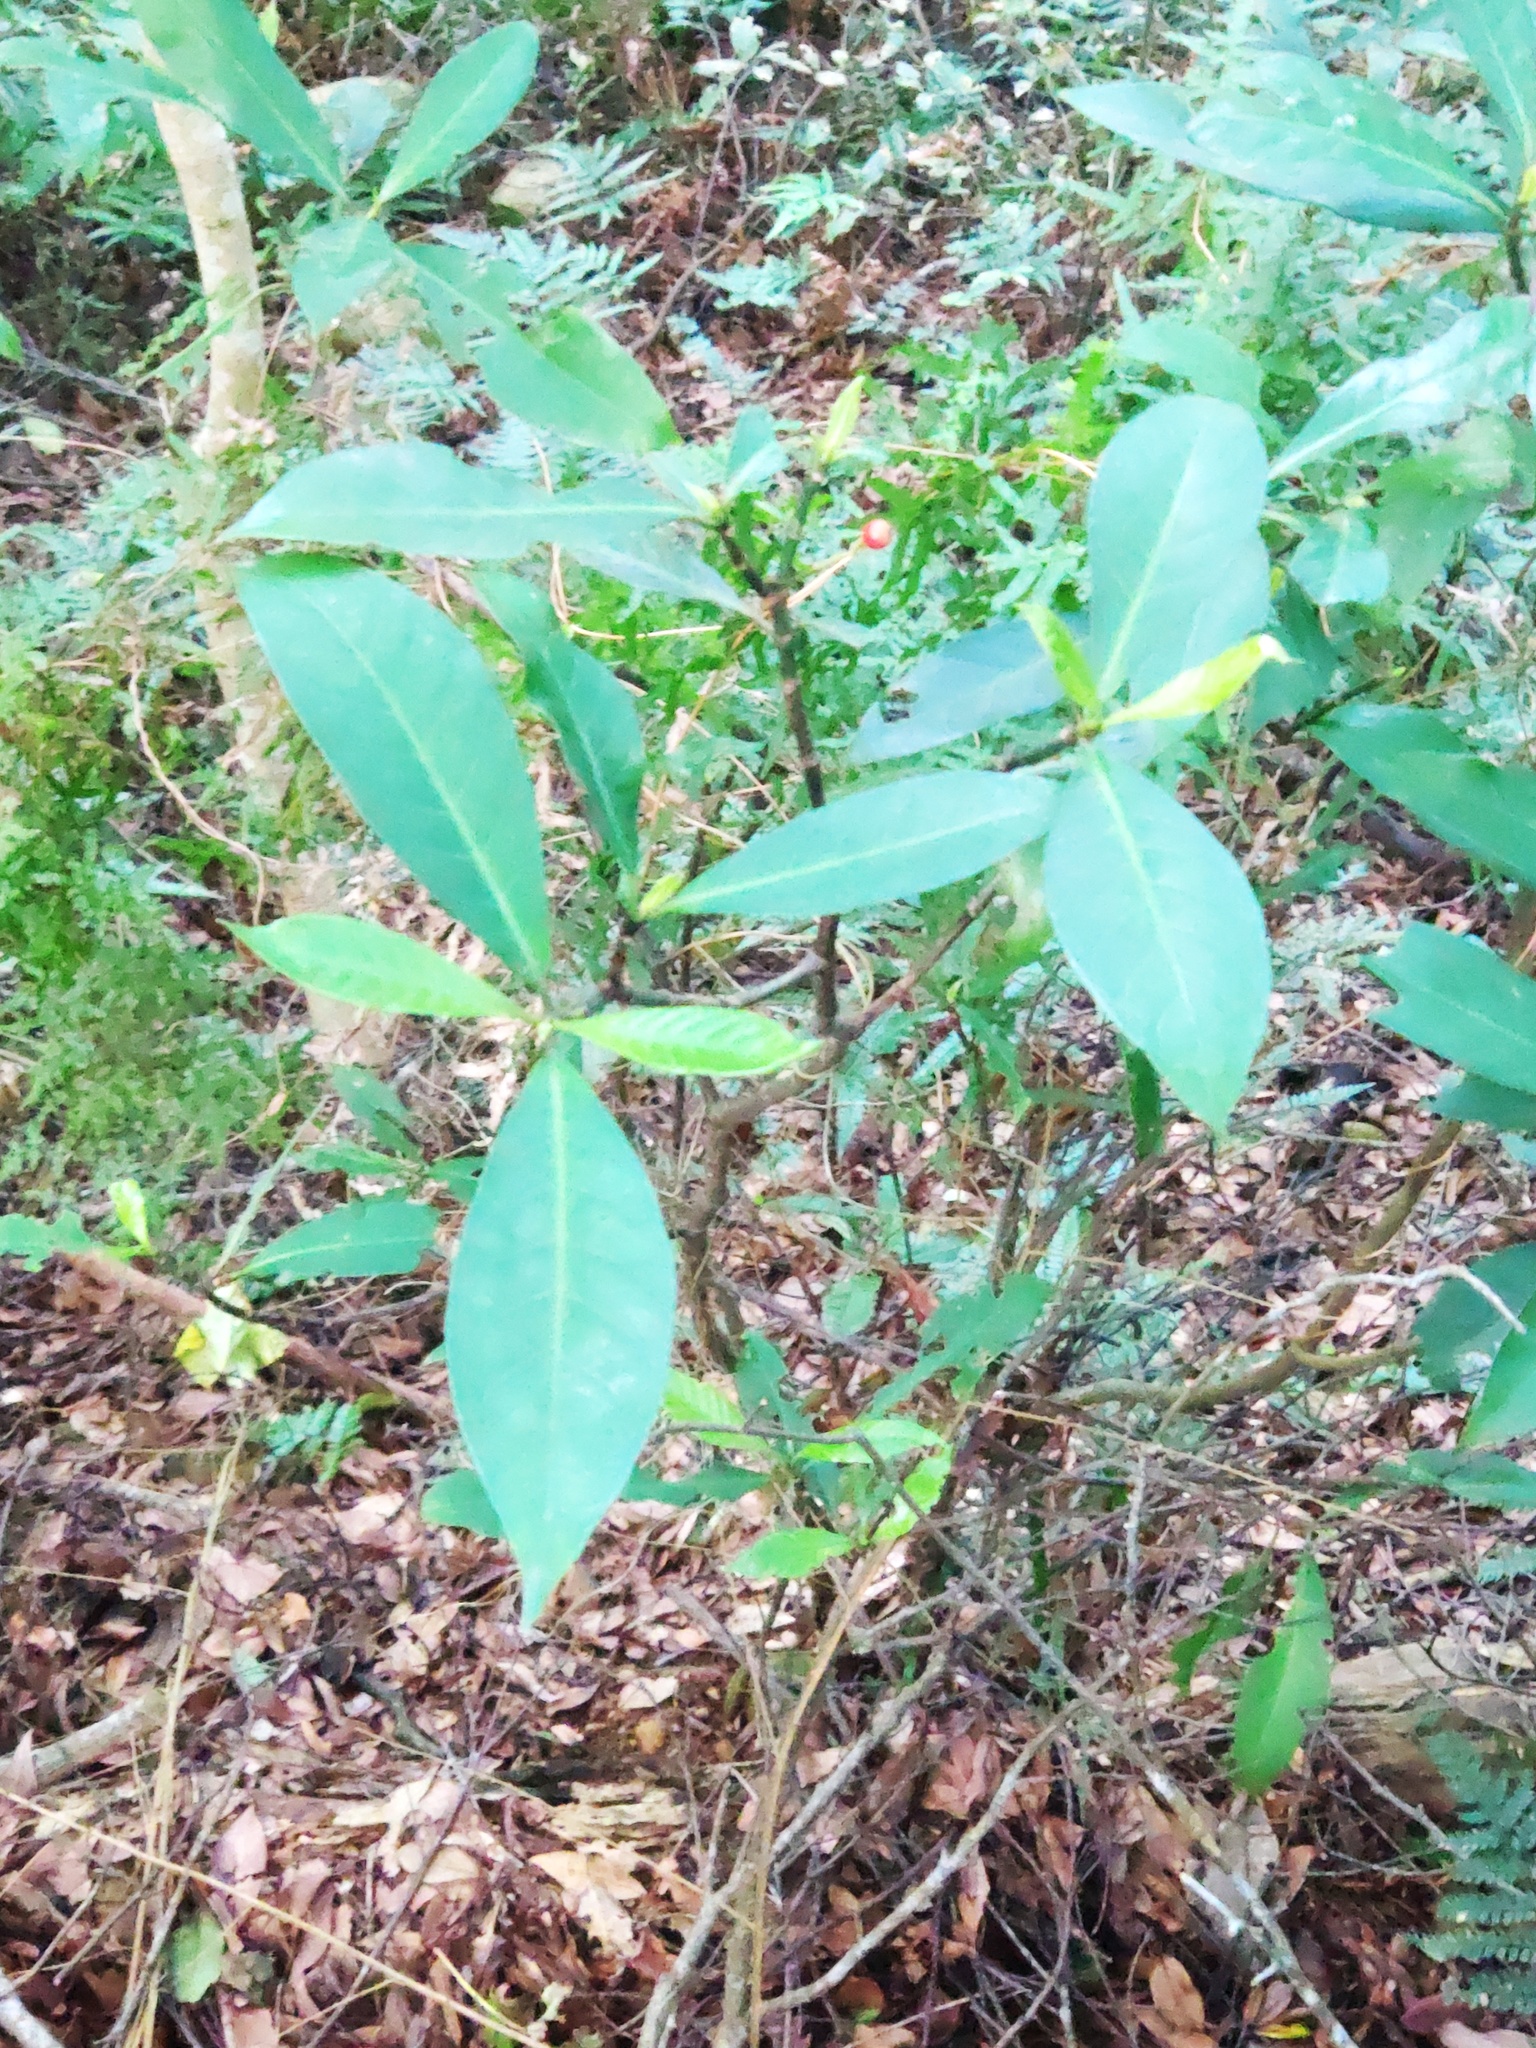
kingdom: Plantae
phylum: Tracheophyta
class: Magnoliopsida
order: Gentianales
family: Rubiaceae
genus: Psychotria
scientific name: Psychotria asiatica
